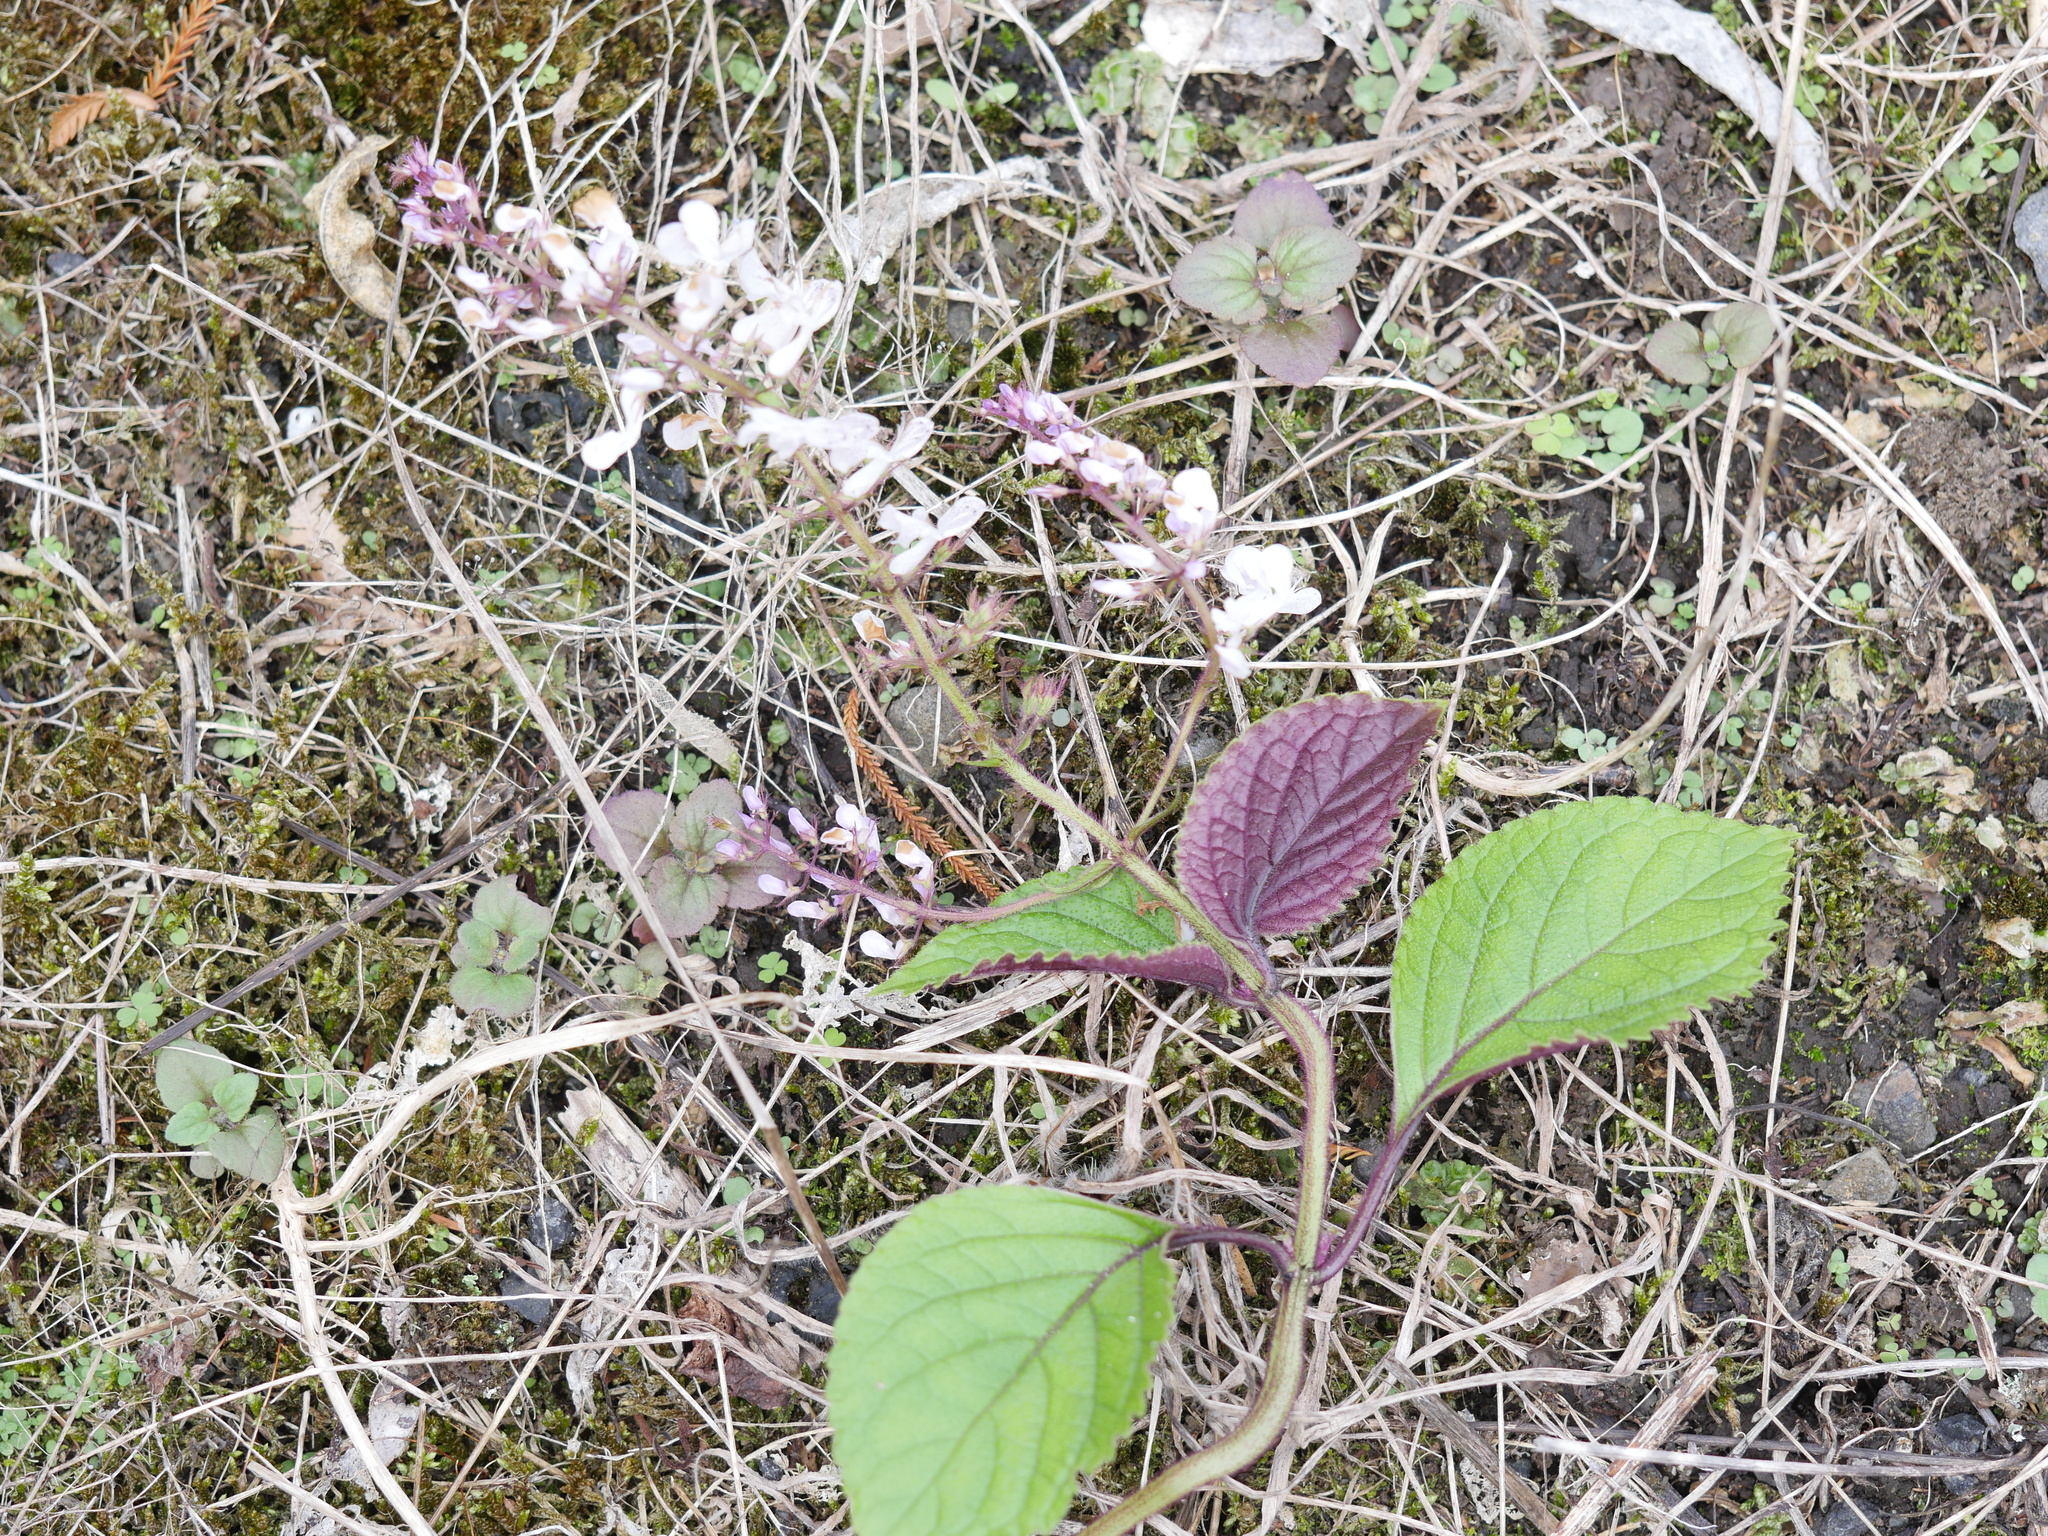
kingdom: Plantae
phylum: Tracheophyta
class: Magnoliopsida
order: Lamiales
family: Lamiaceae
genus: Plectranthus
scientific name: Plectranthus ciliatus
